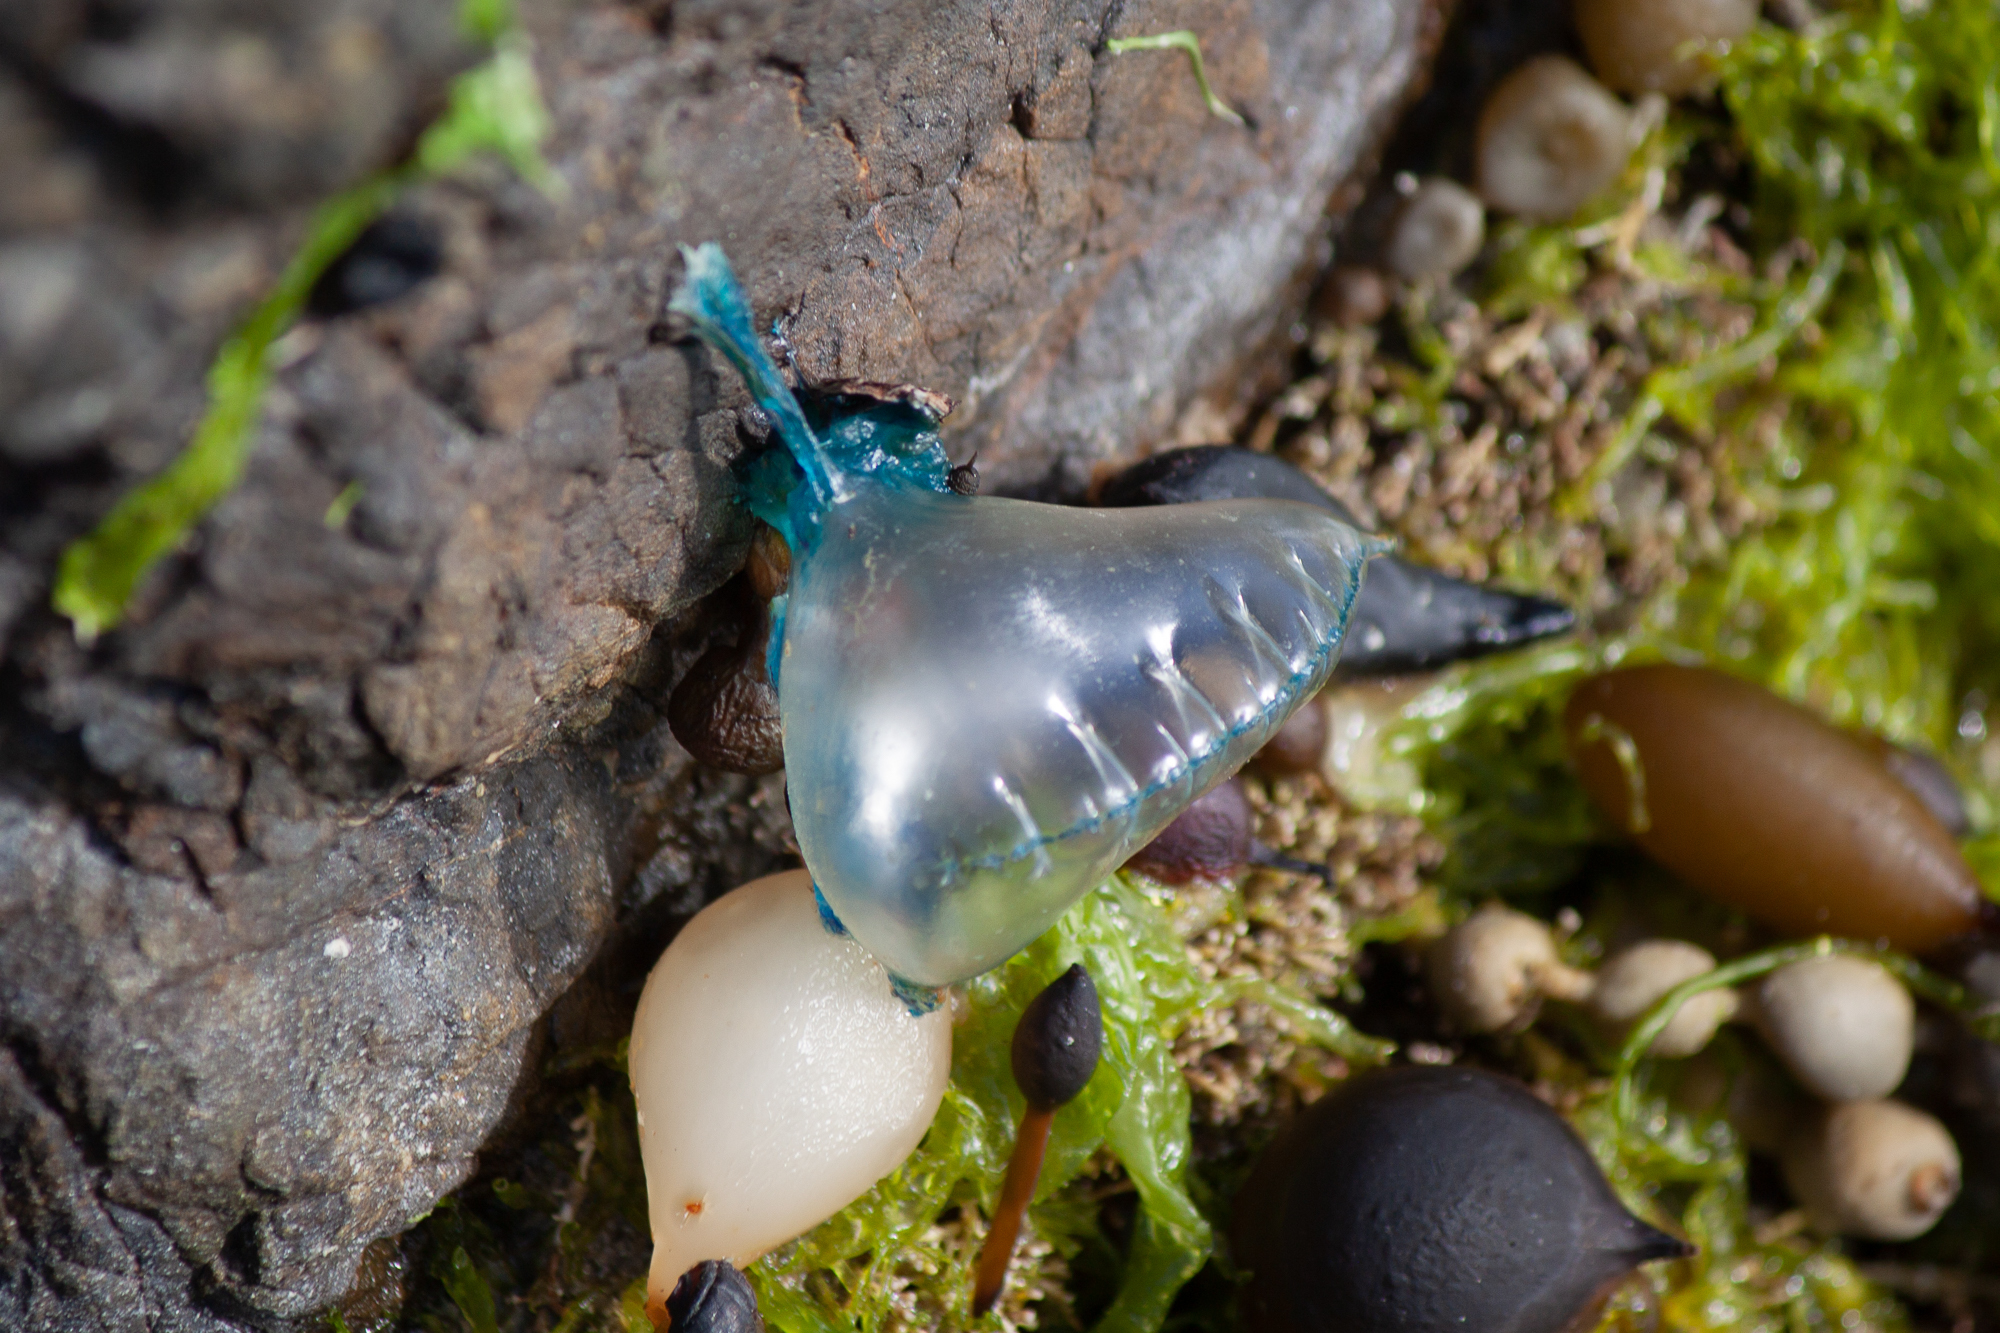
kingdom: Animalia
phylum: Cnidaria
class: Hydrozoa
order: Siphonophorae
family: Physaliidae
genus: Physalia
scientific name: Physalia physalis
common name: Portuguese man-of-war
